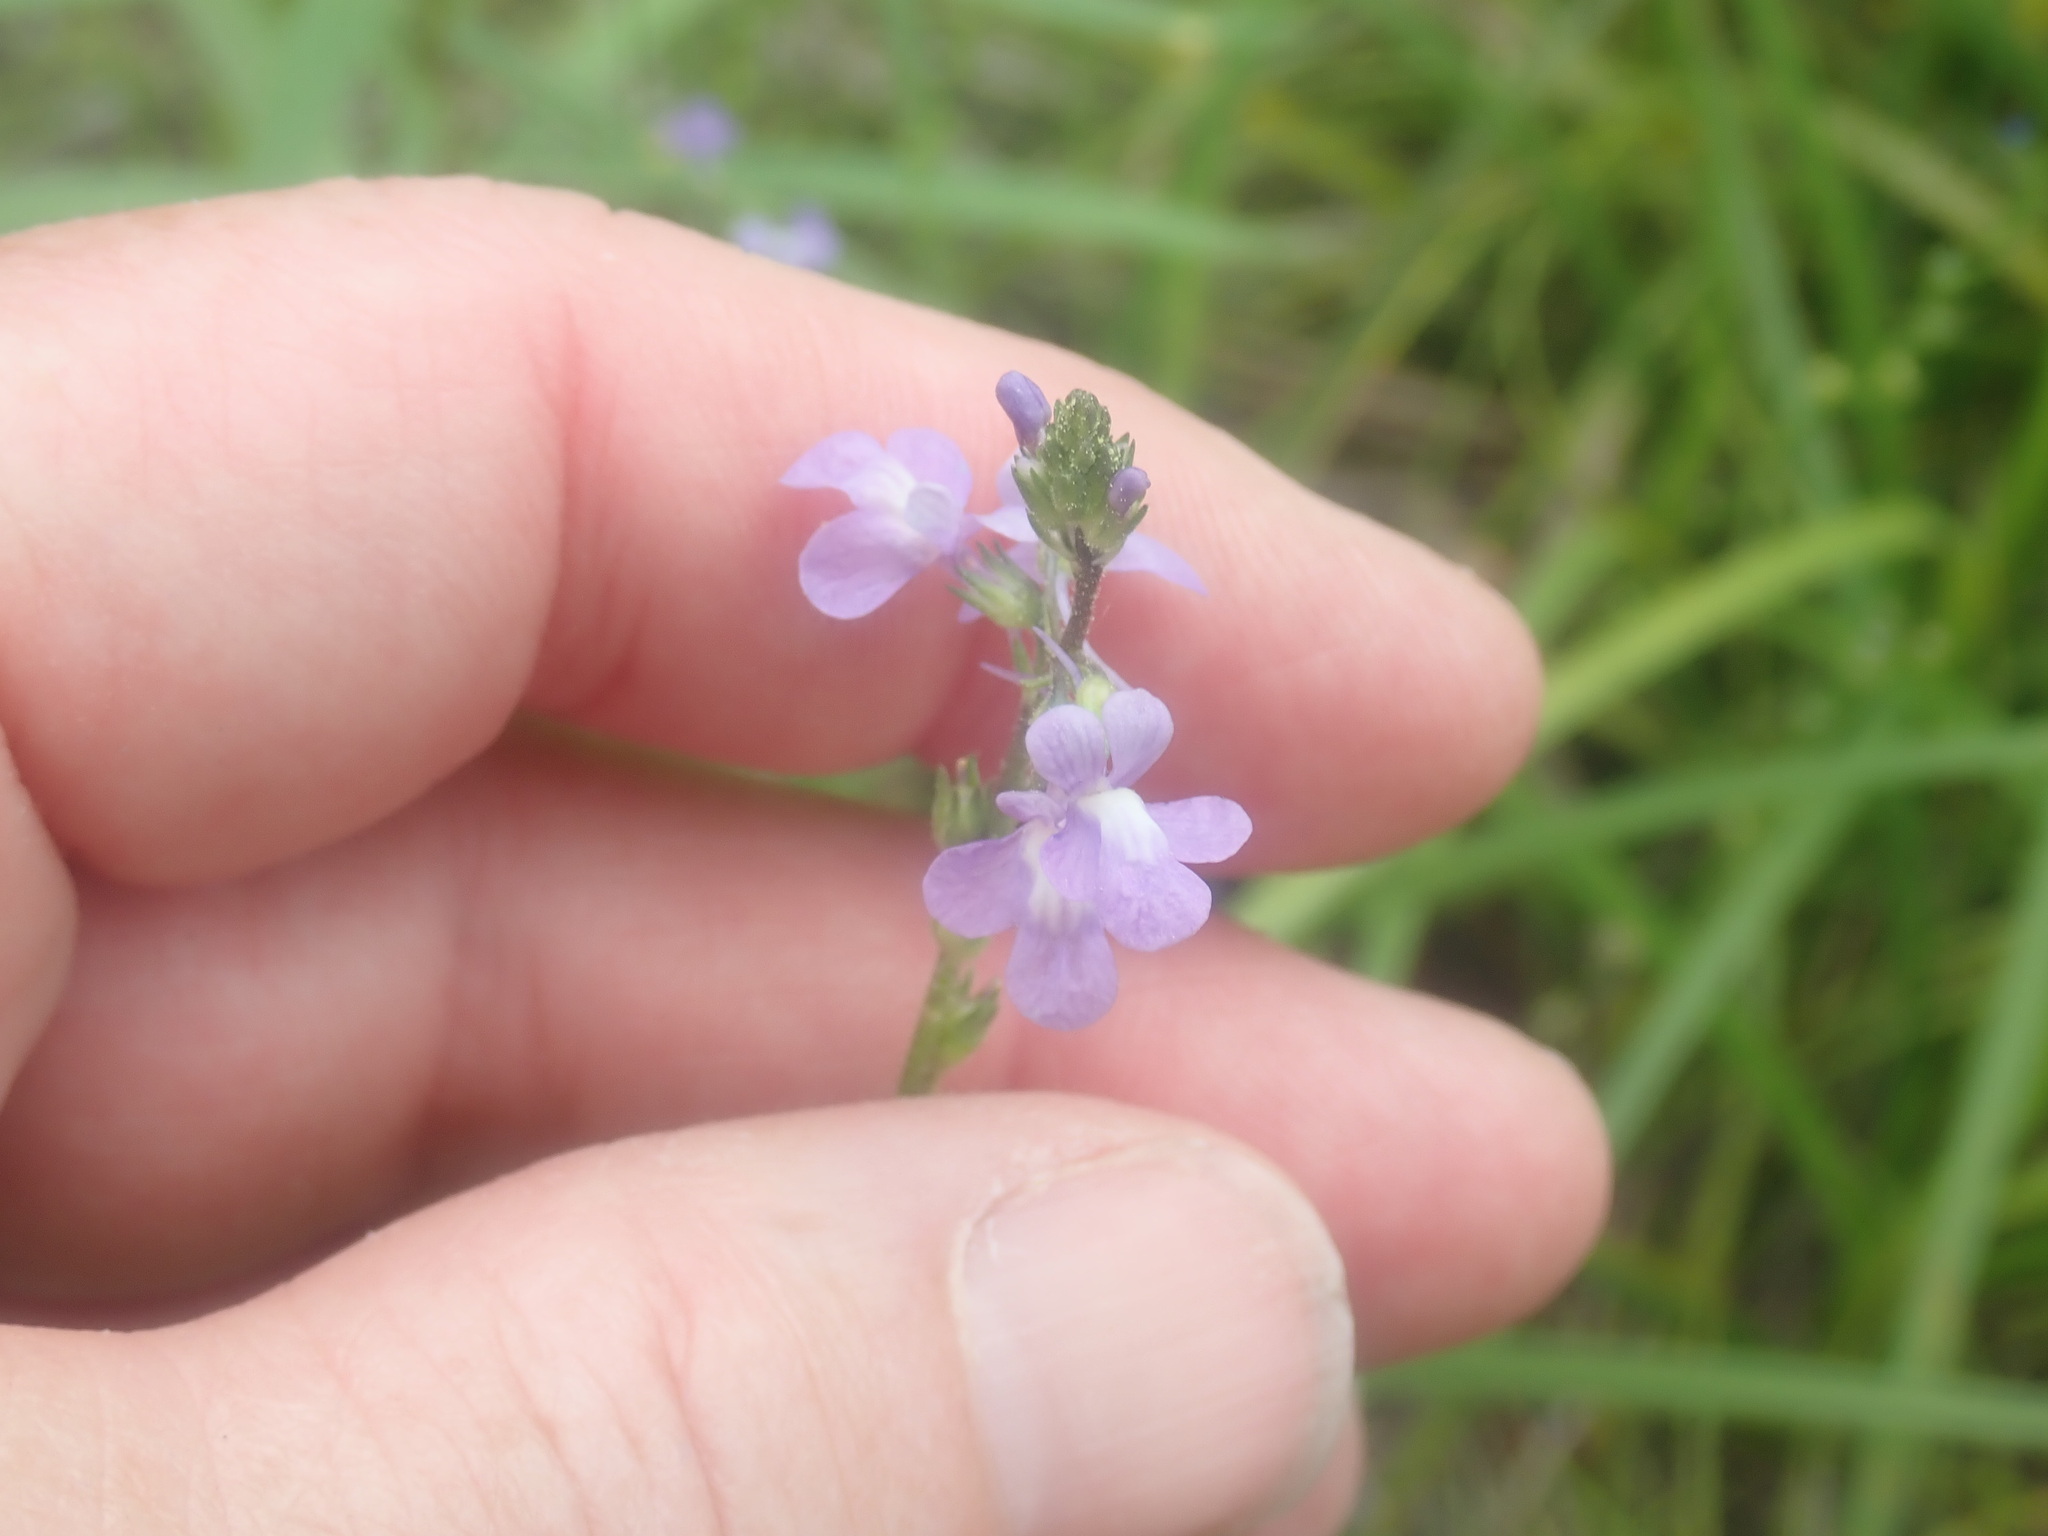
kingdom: Plantae
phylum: Tracheophyta
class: Magnoliopsida
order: Lamiales
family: Plantaginaceae
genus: Nuttallanthus
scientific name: Nuttallanthus canadensis
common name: Blue toadflax
